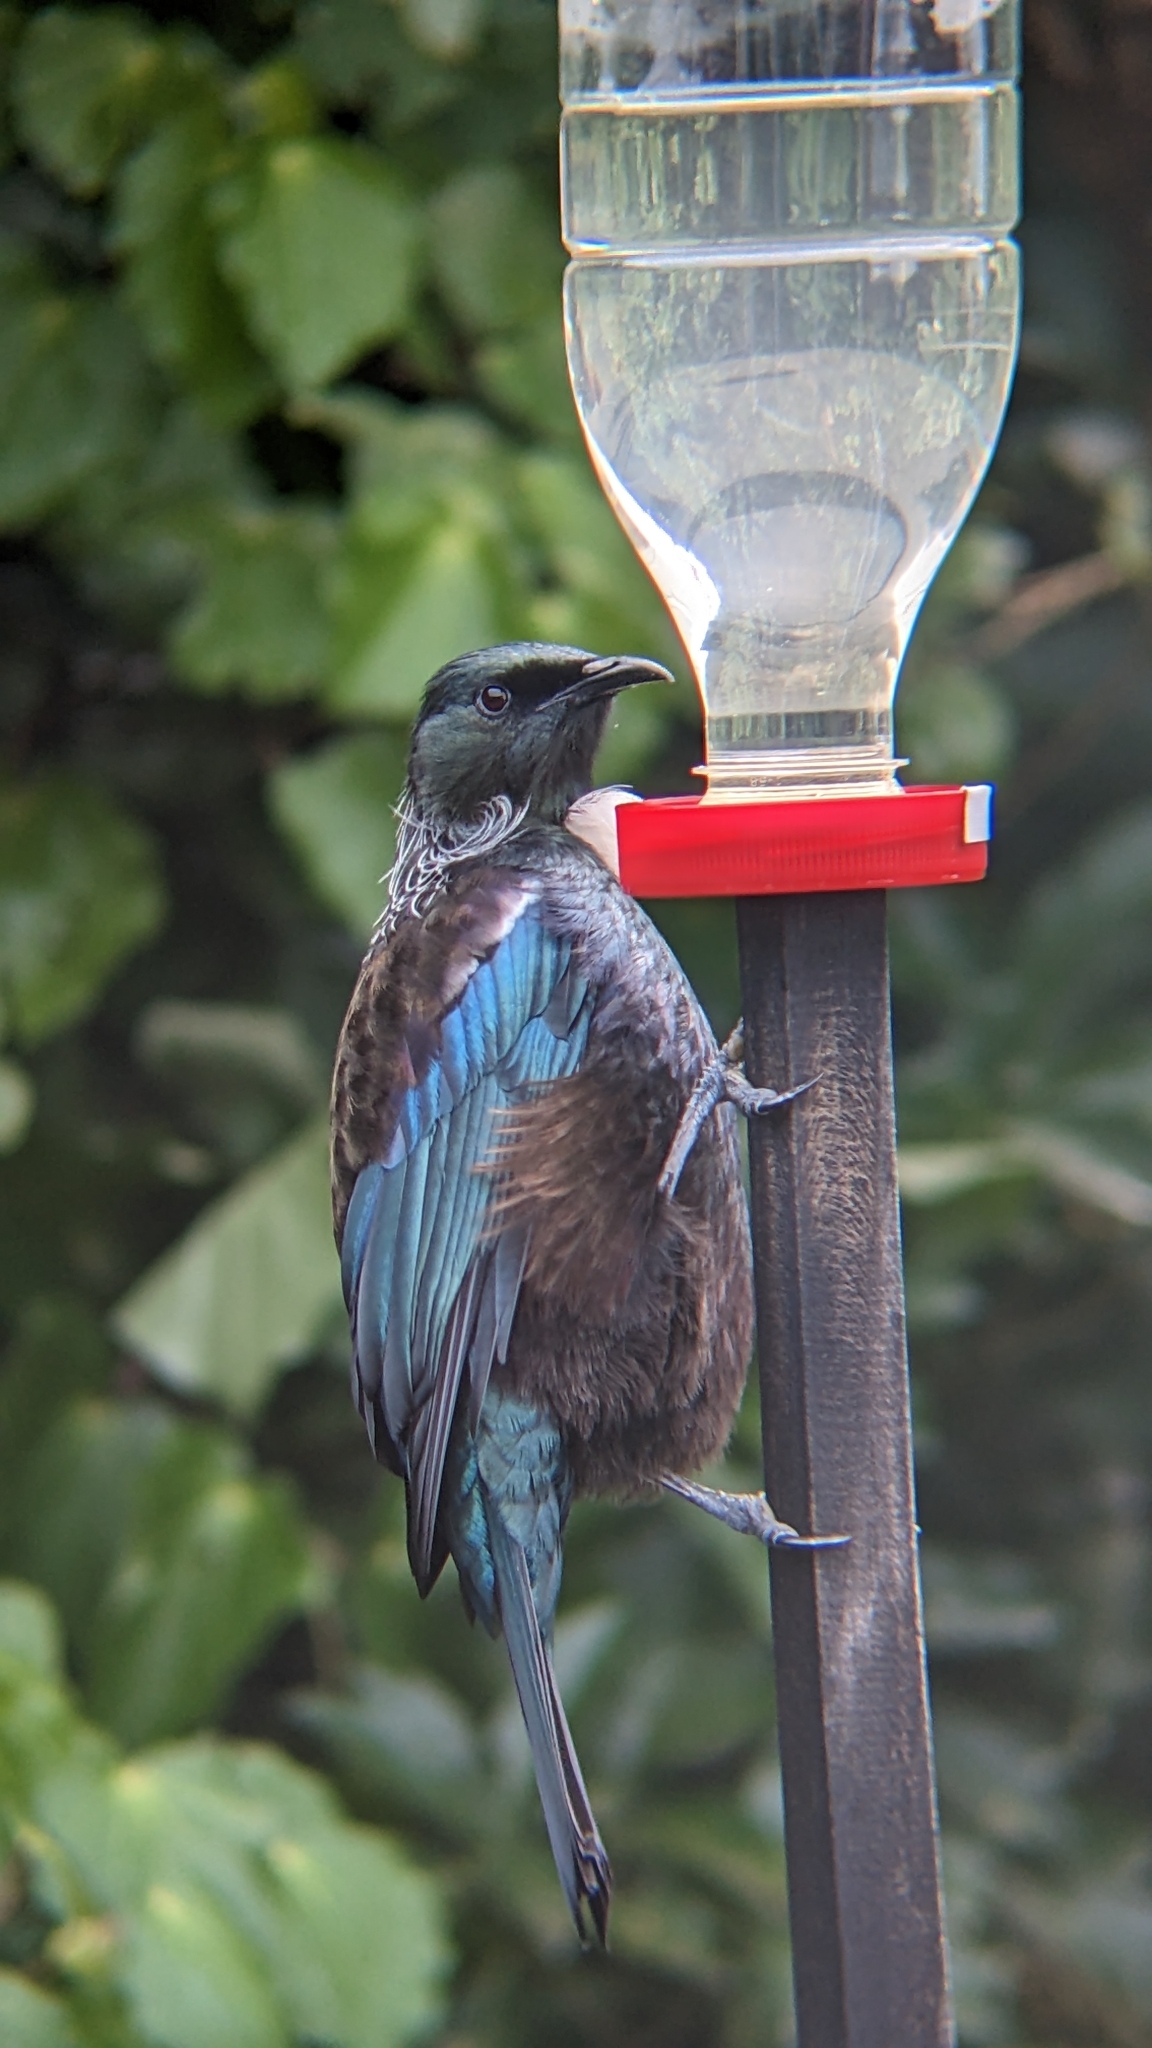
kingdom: Animalia
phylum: Chordata
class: Aves
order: Passeriformes
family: Meliphagidae
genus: Prosthemadera
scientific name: Prosthemadera novaeseelandiae
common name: Tui
